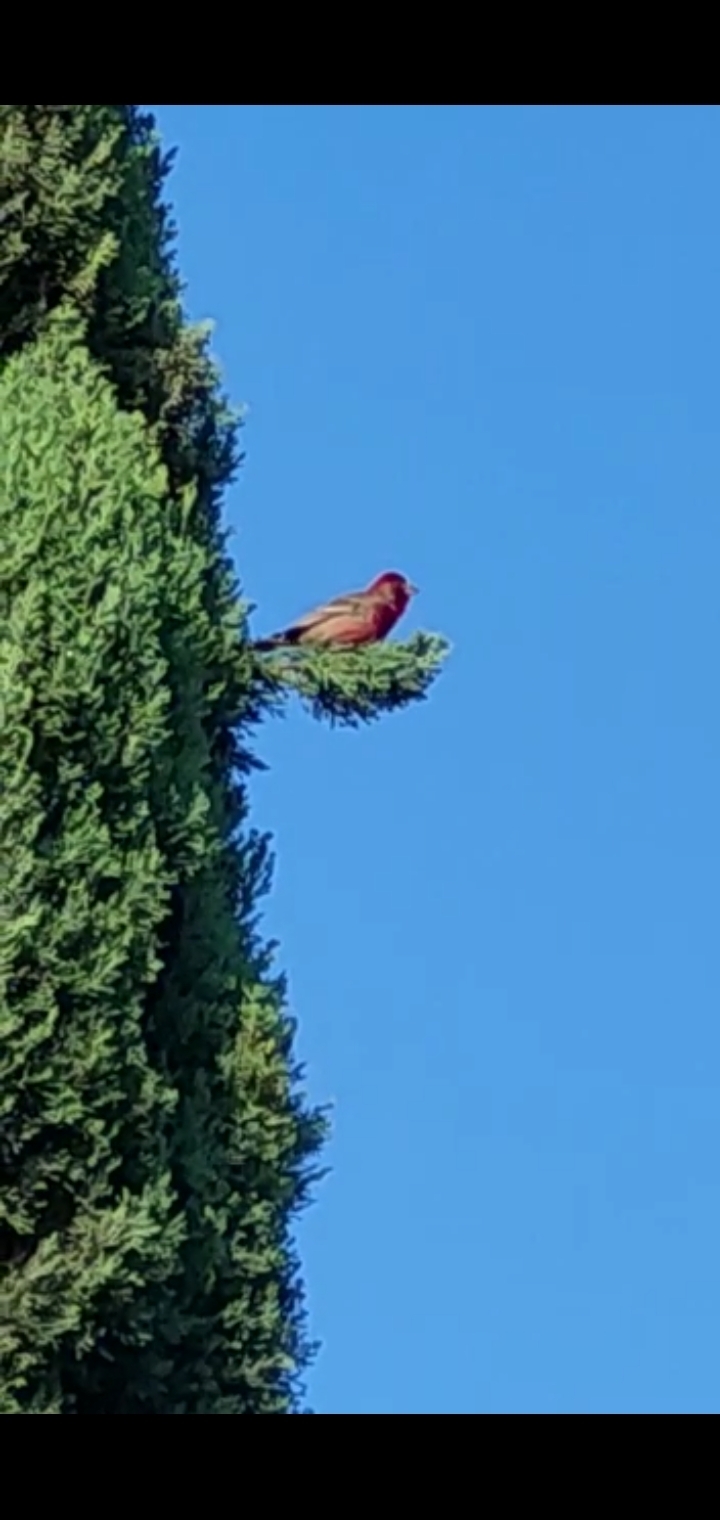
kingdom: Animalia
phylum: Chordata
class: Aves
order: Passeriformes
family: Fringillidae
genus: Haemorhous
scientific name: Haemorhous mexicanus
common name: House finch
